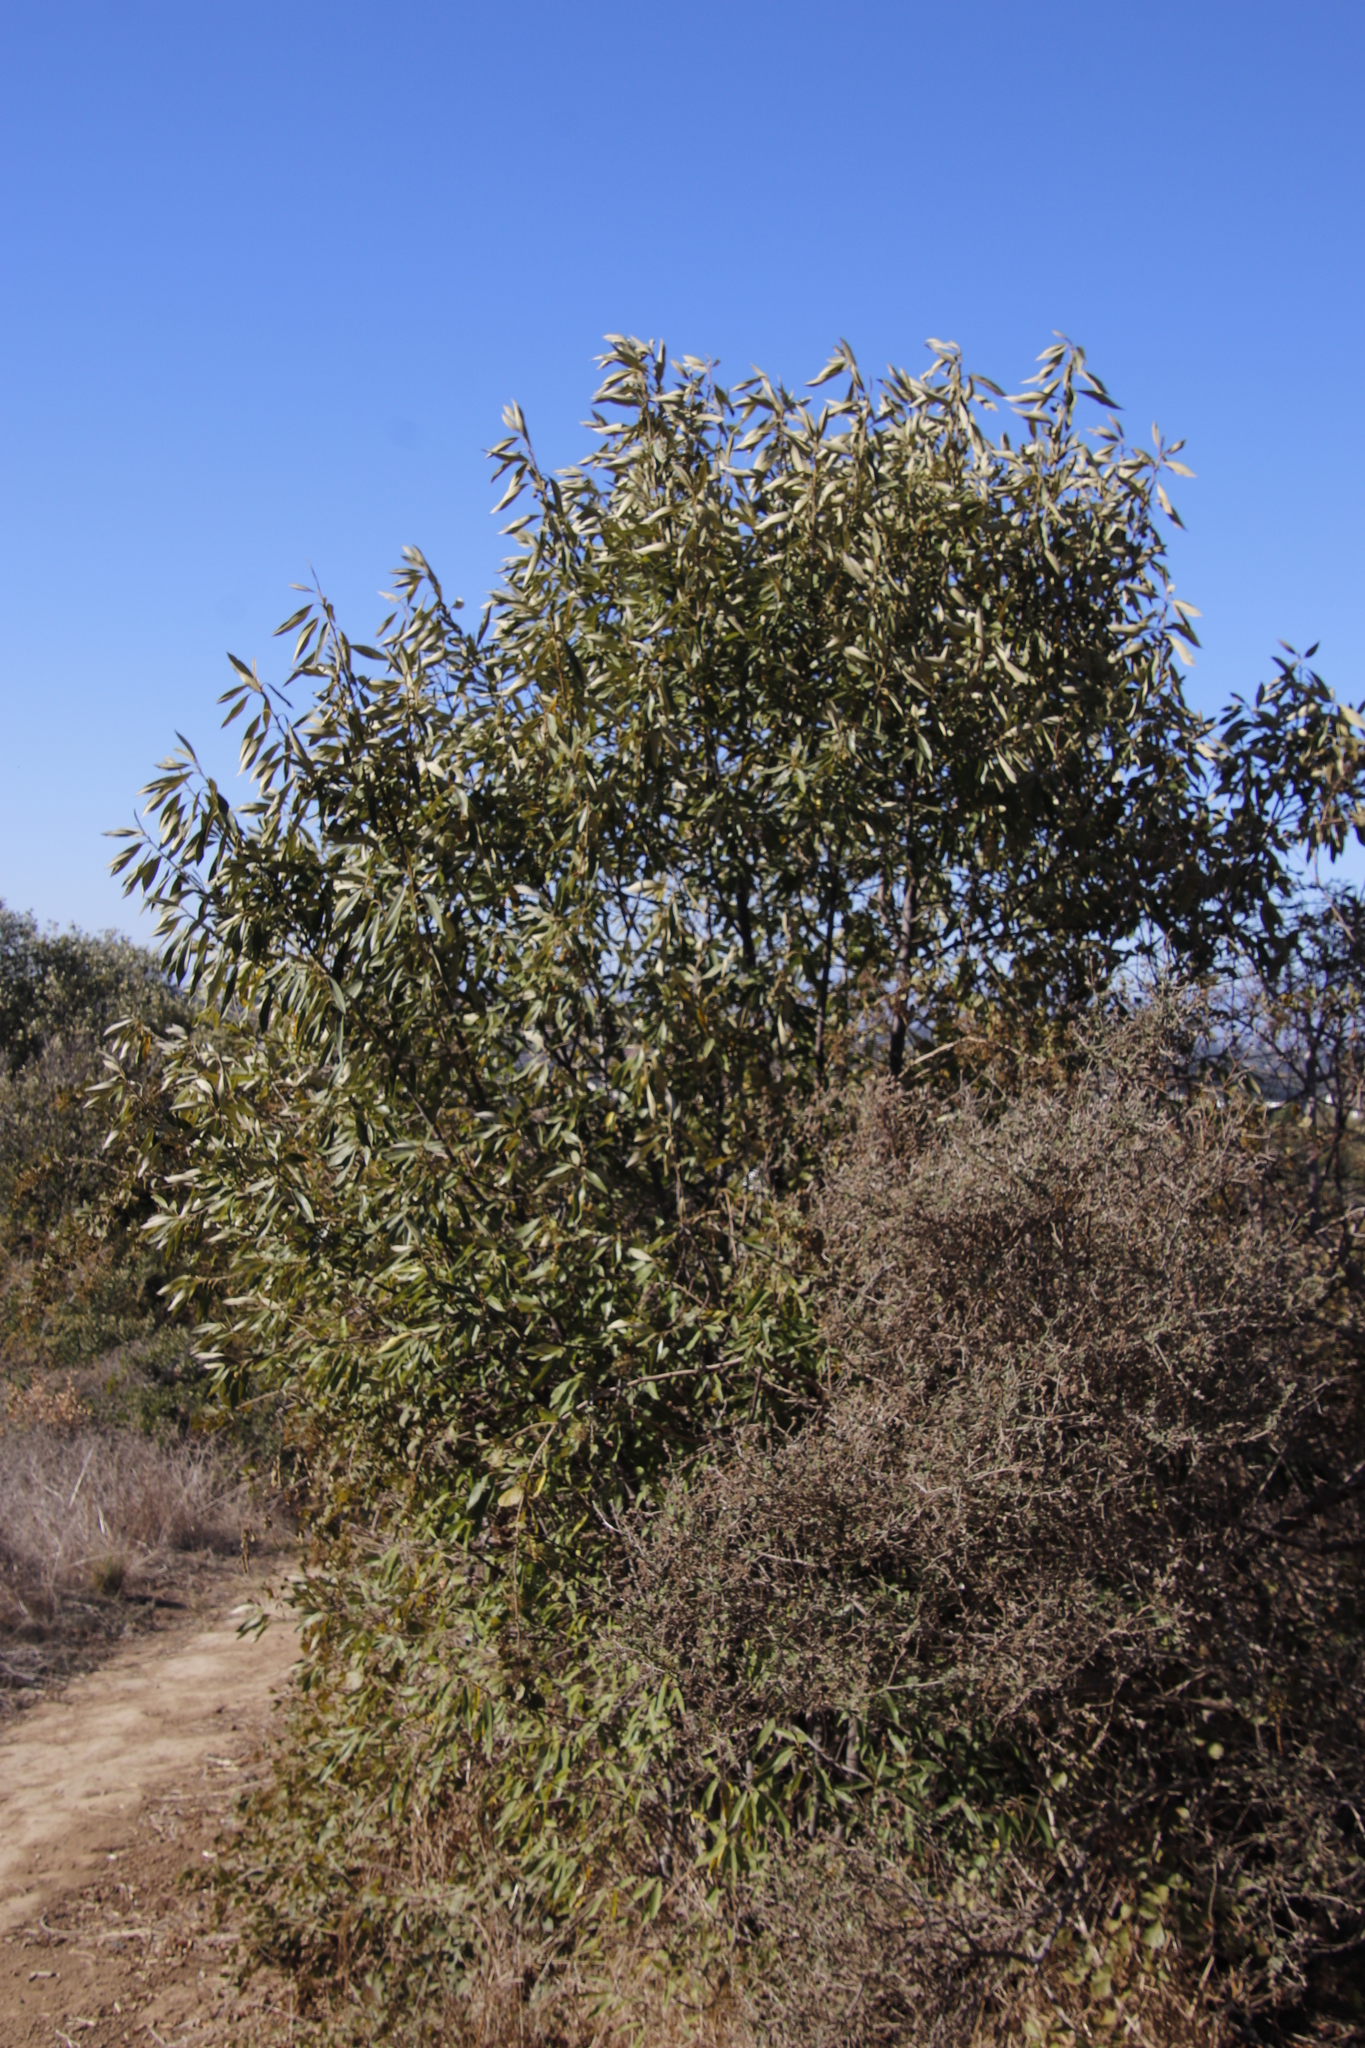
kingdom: Plantae
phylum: Tracheophyta
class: Magnoliopsida
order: Malpighiales
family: Achariaceae
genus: Kiggelaria
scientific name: Kiggelaria africana
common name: Wild peach
